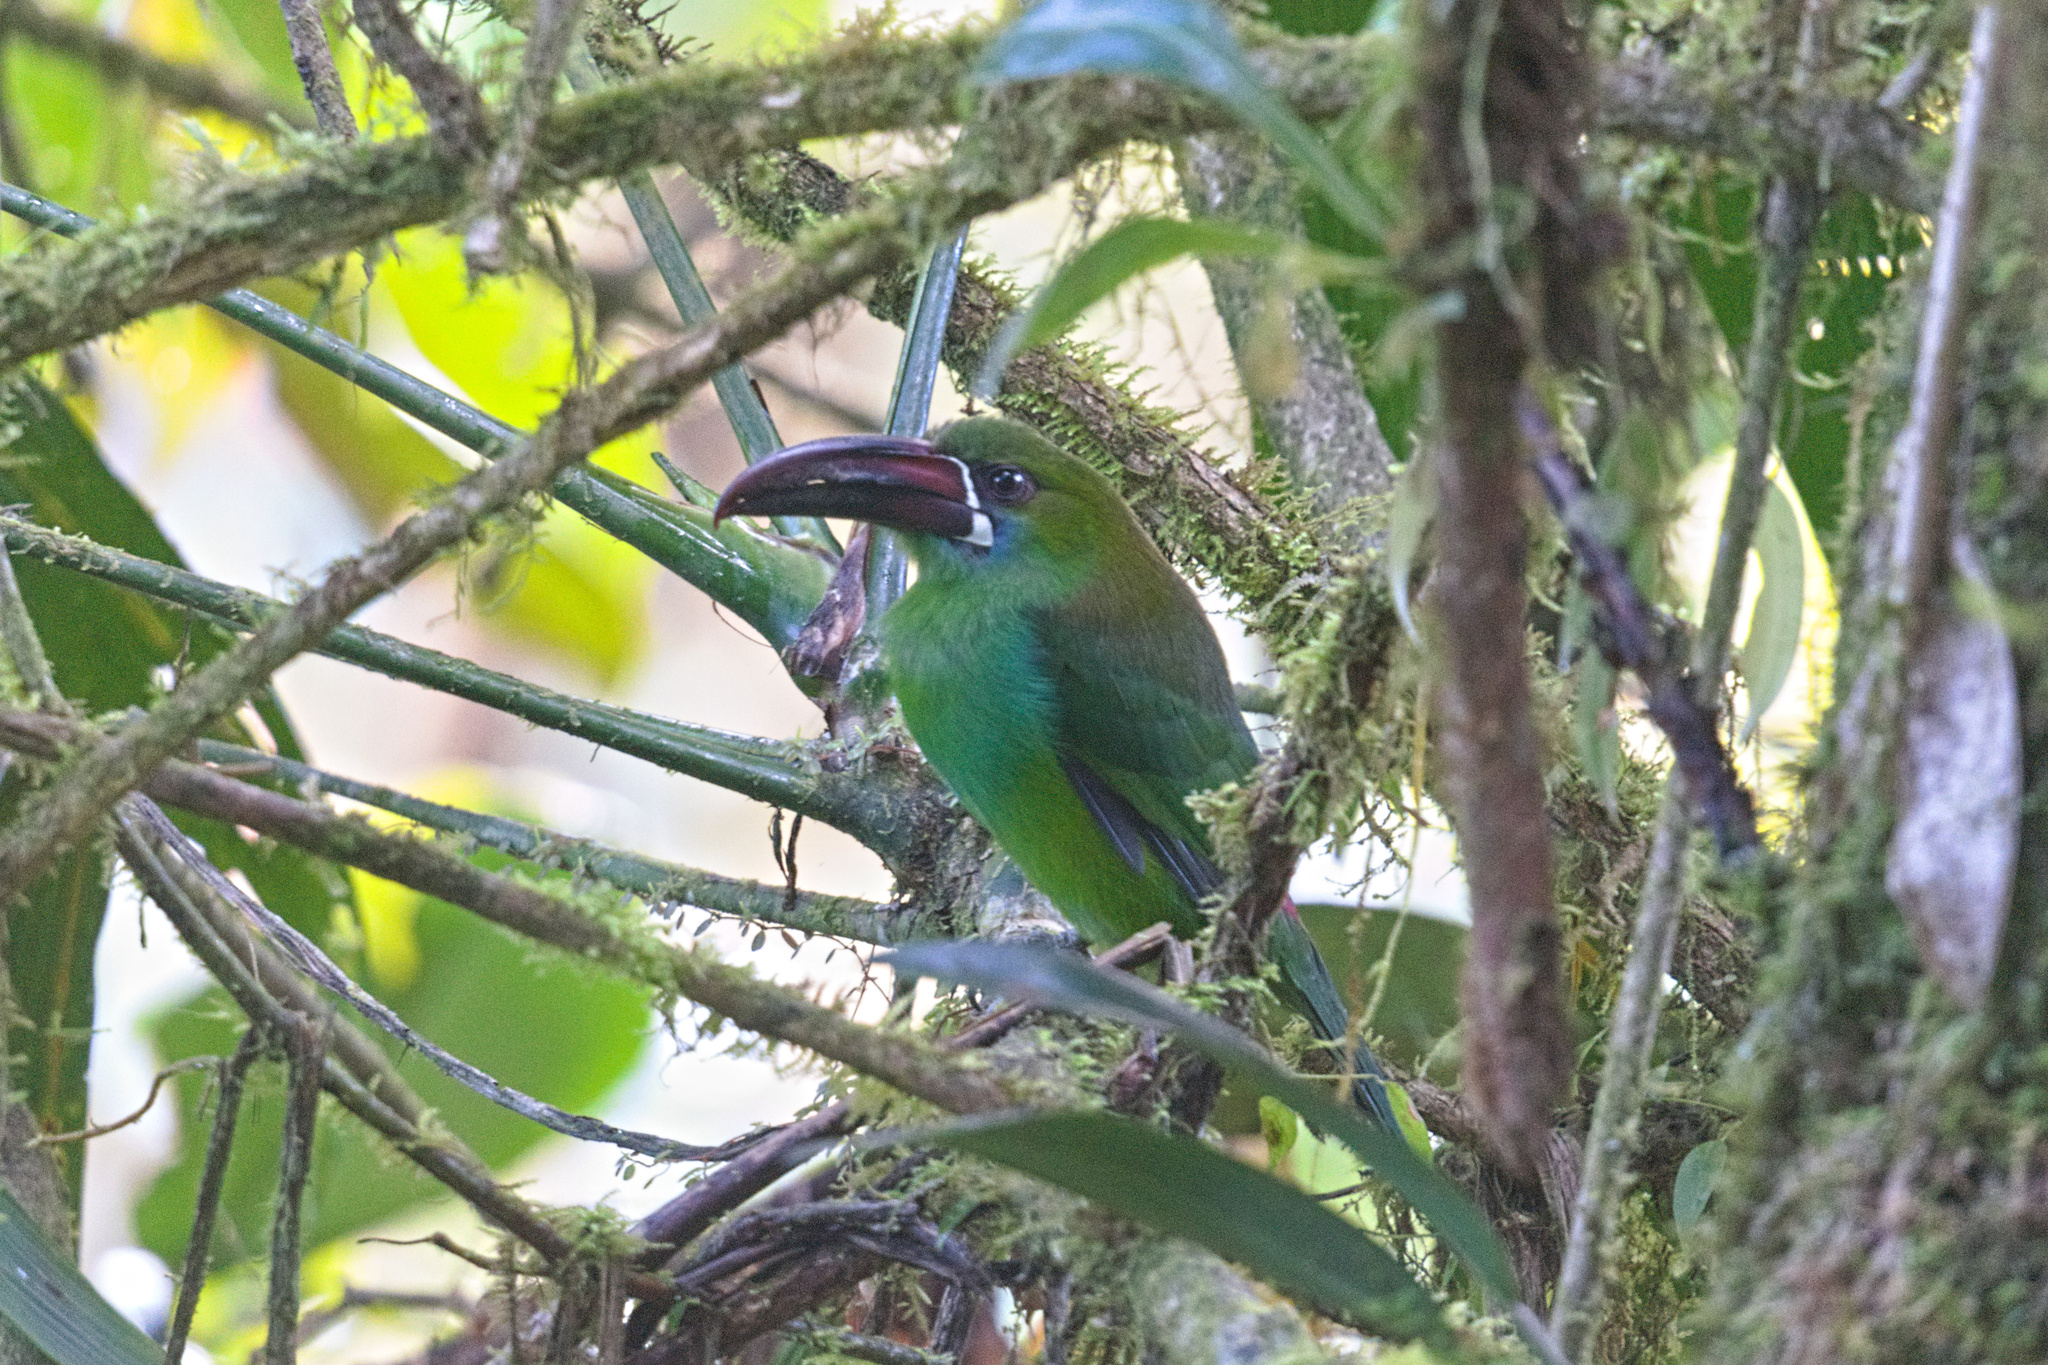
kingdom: Animalia
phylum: Chordata
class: Aves
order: Piciformes
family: Ramphastidae
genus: Aulacorhynchus
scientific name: Aulacorhynchus haematopygus
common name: Crimson-rumped toucanet
